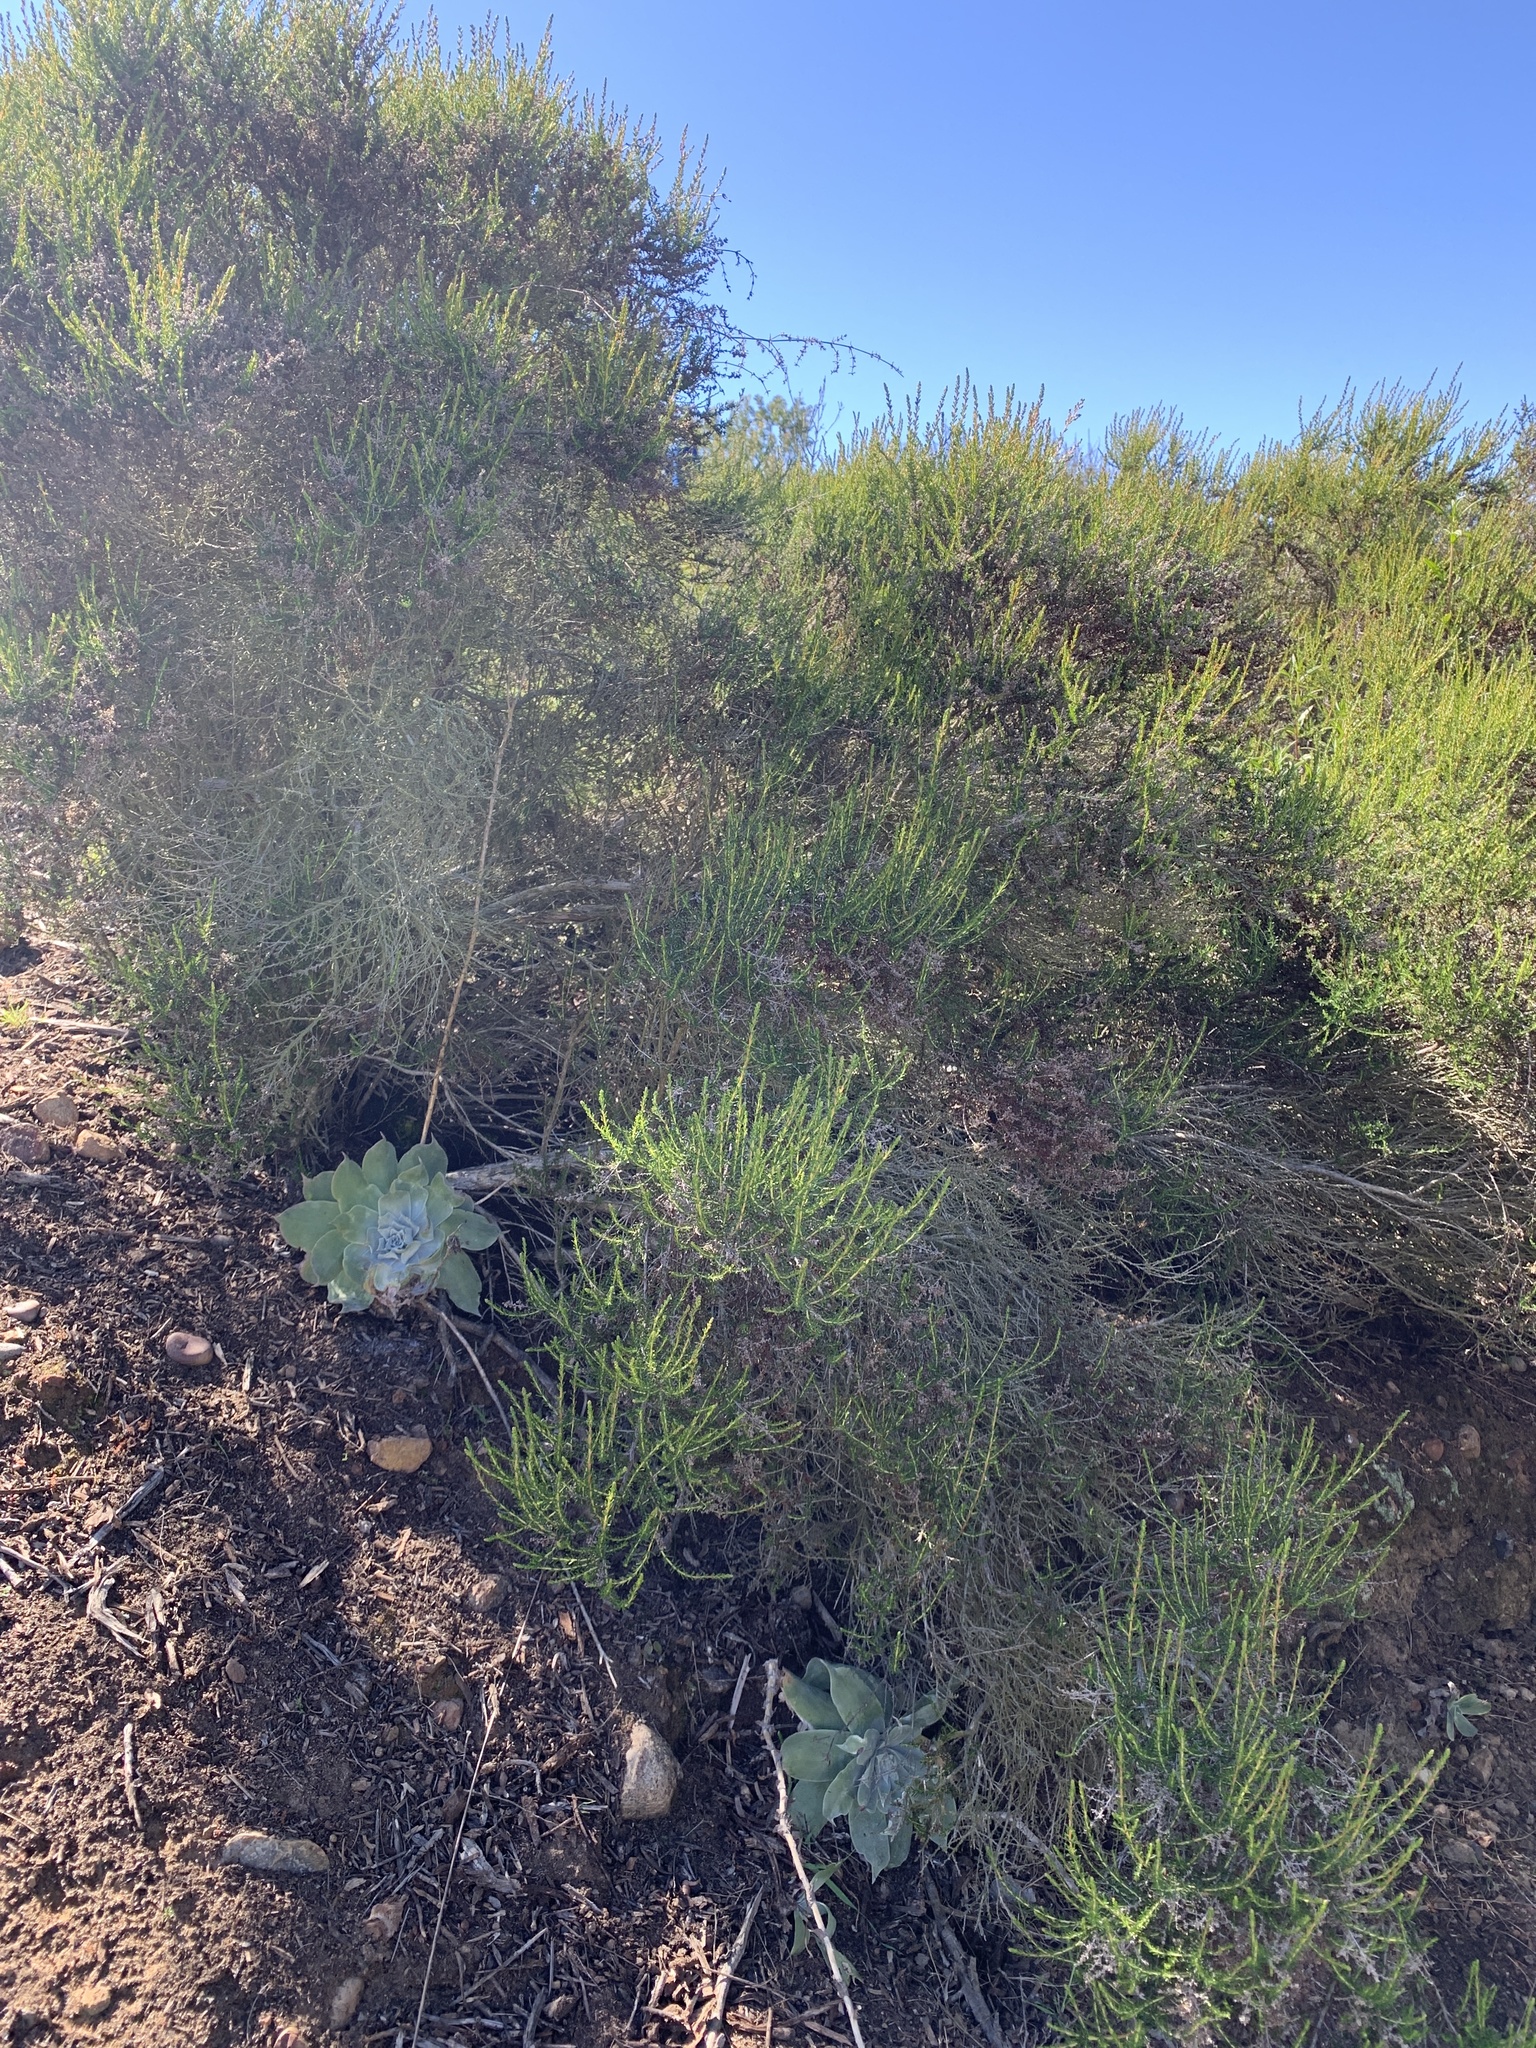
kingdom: Plantae
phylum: Tracheophyta
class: Magnoliopsida
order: Saxifragales
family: Crassulaceae
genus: Dudleya
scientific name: Dudleya pulverulenta
